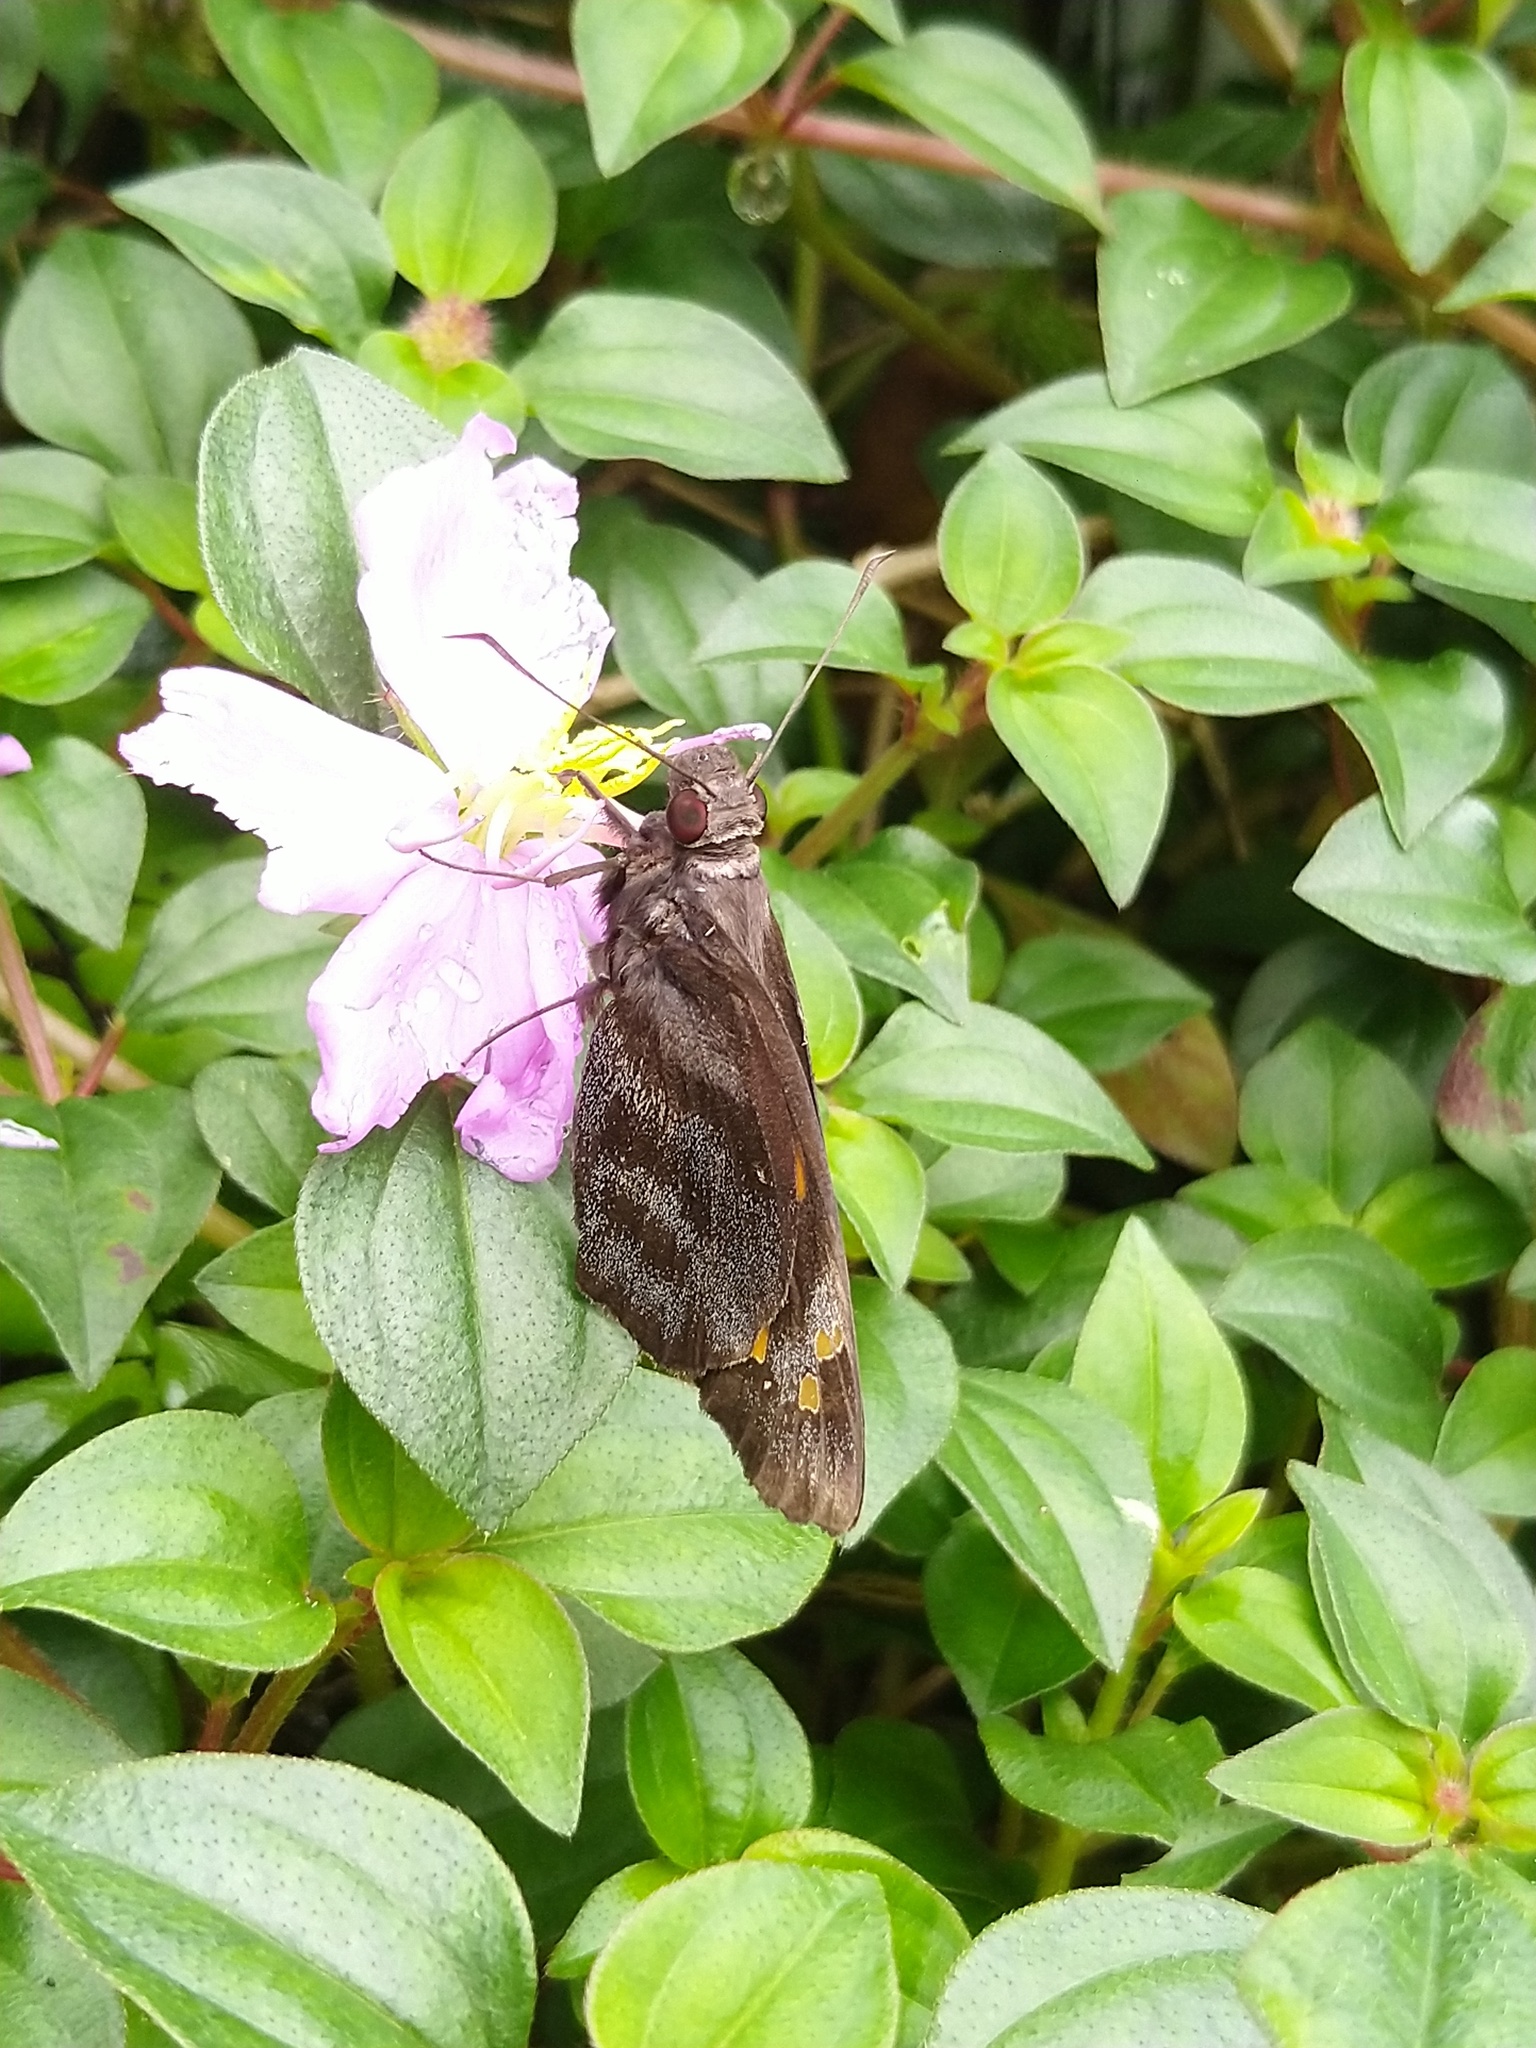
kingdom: Animalia
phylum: Arthropoda
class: Insecta
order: Lepidoptera
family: Hesperiidae
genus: Gangara
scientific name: Gangara thyrsis
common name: Giant redeye
